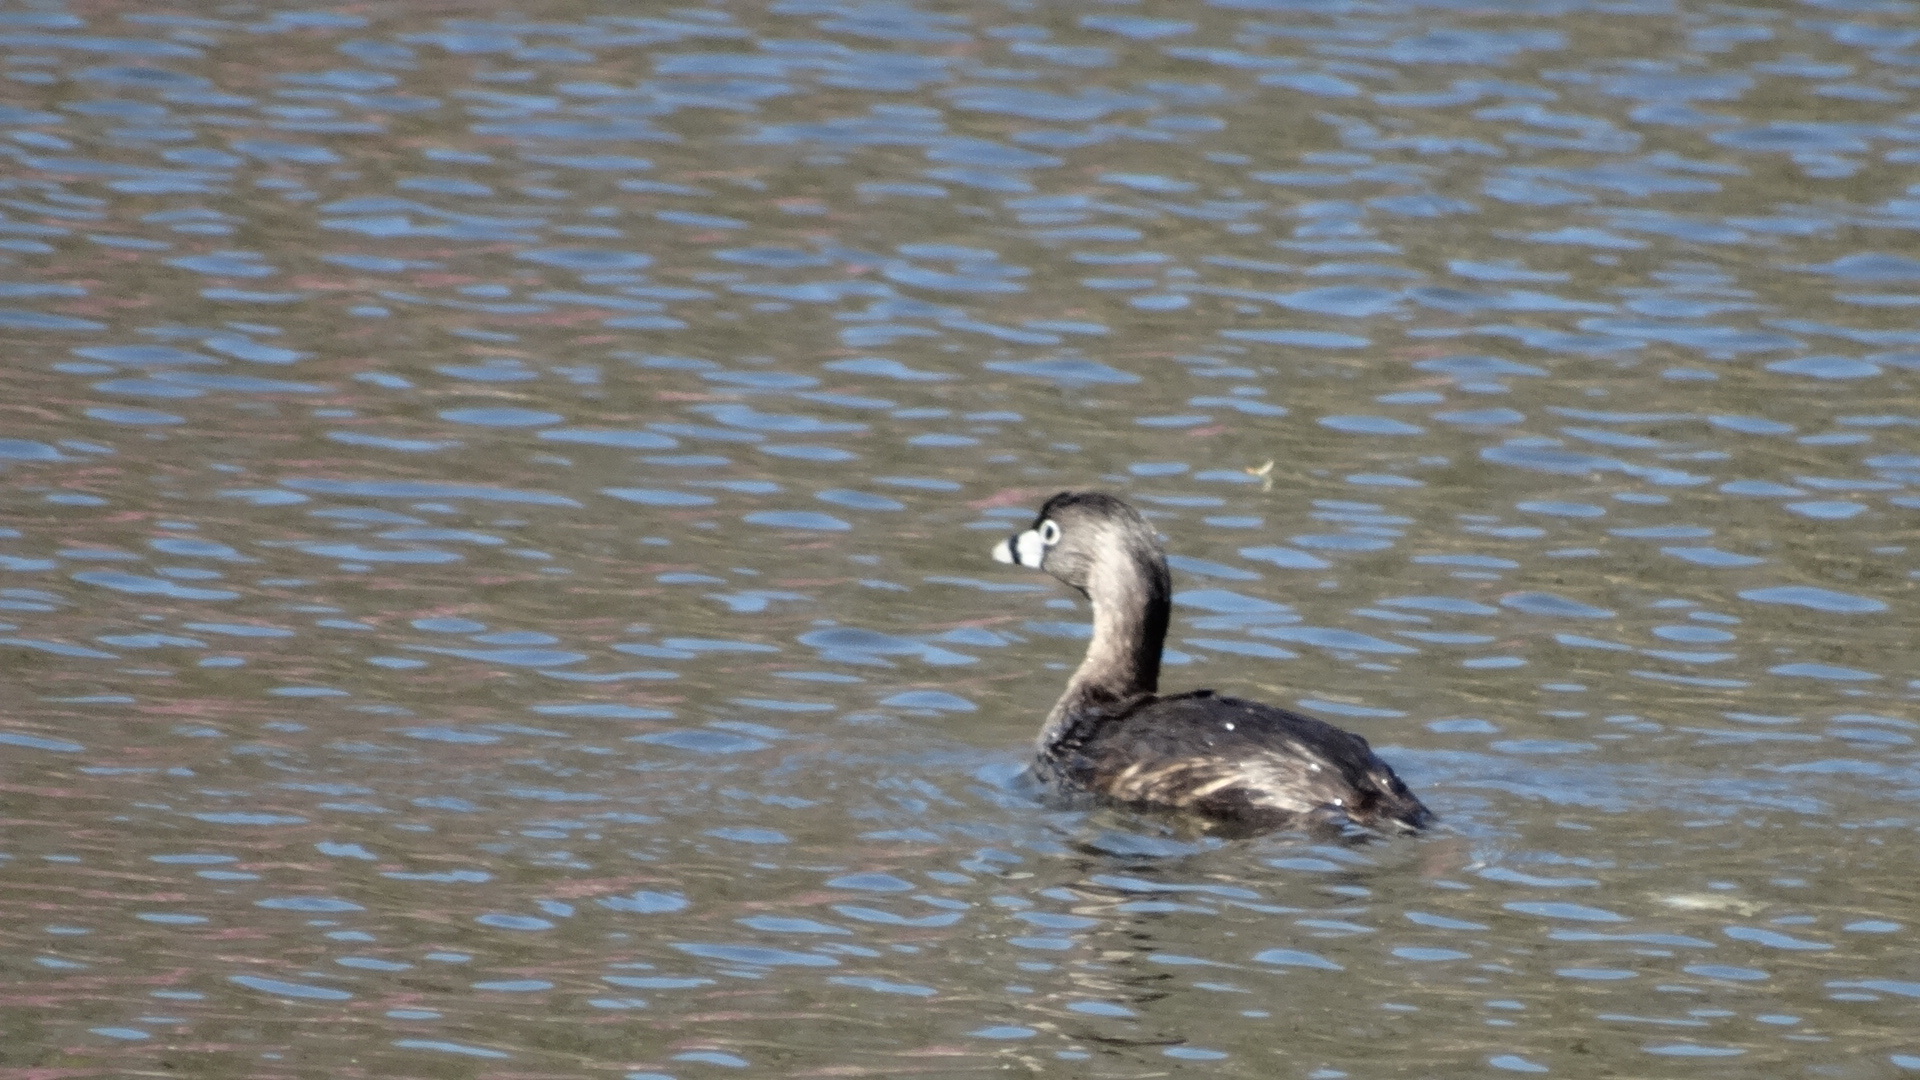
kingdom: Animalia
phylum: Chordata
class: Aves
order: Podicipediformes
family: Podicipedidae
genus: Podilymbus
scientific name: Podilymbus podiceps
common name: Pied-billed grebe
